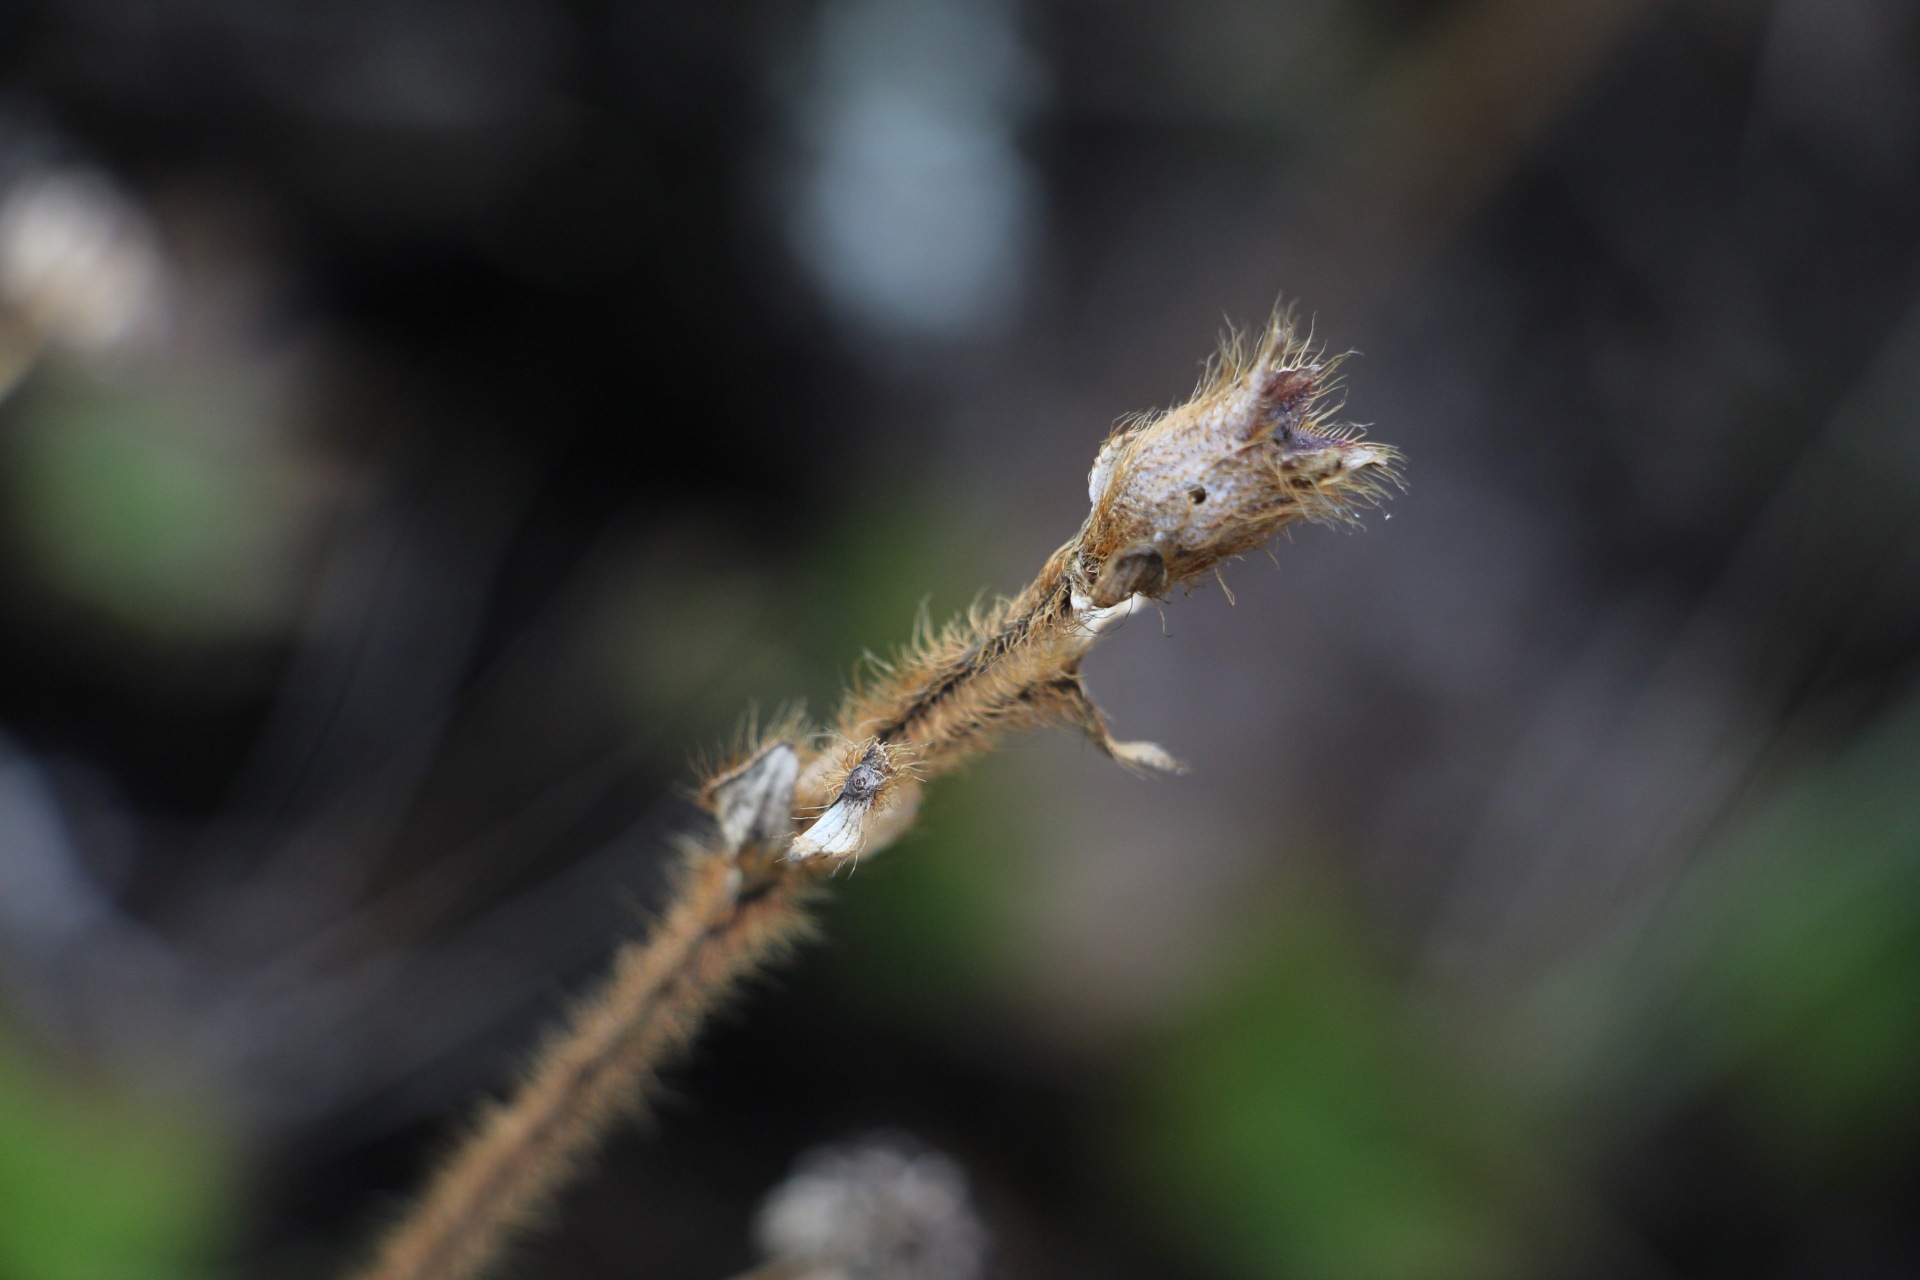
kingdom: Plantae
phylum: Tracheophyta
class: Magnoliopsida
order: Myrtales
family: Melastomataceae
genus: Castratella
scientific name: Castratella piloselloides
